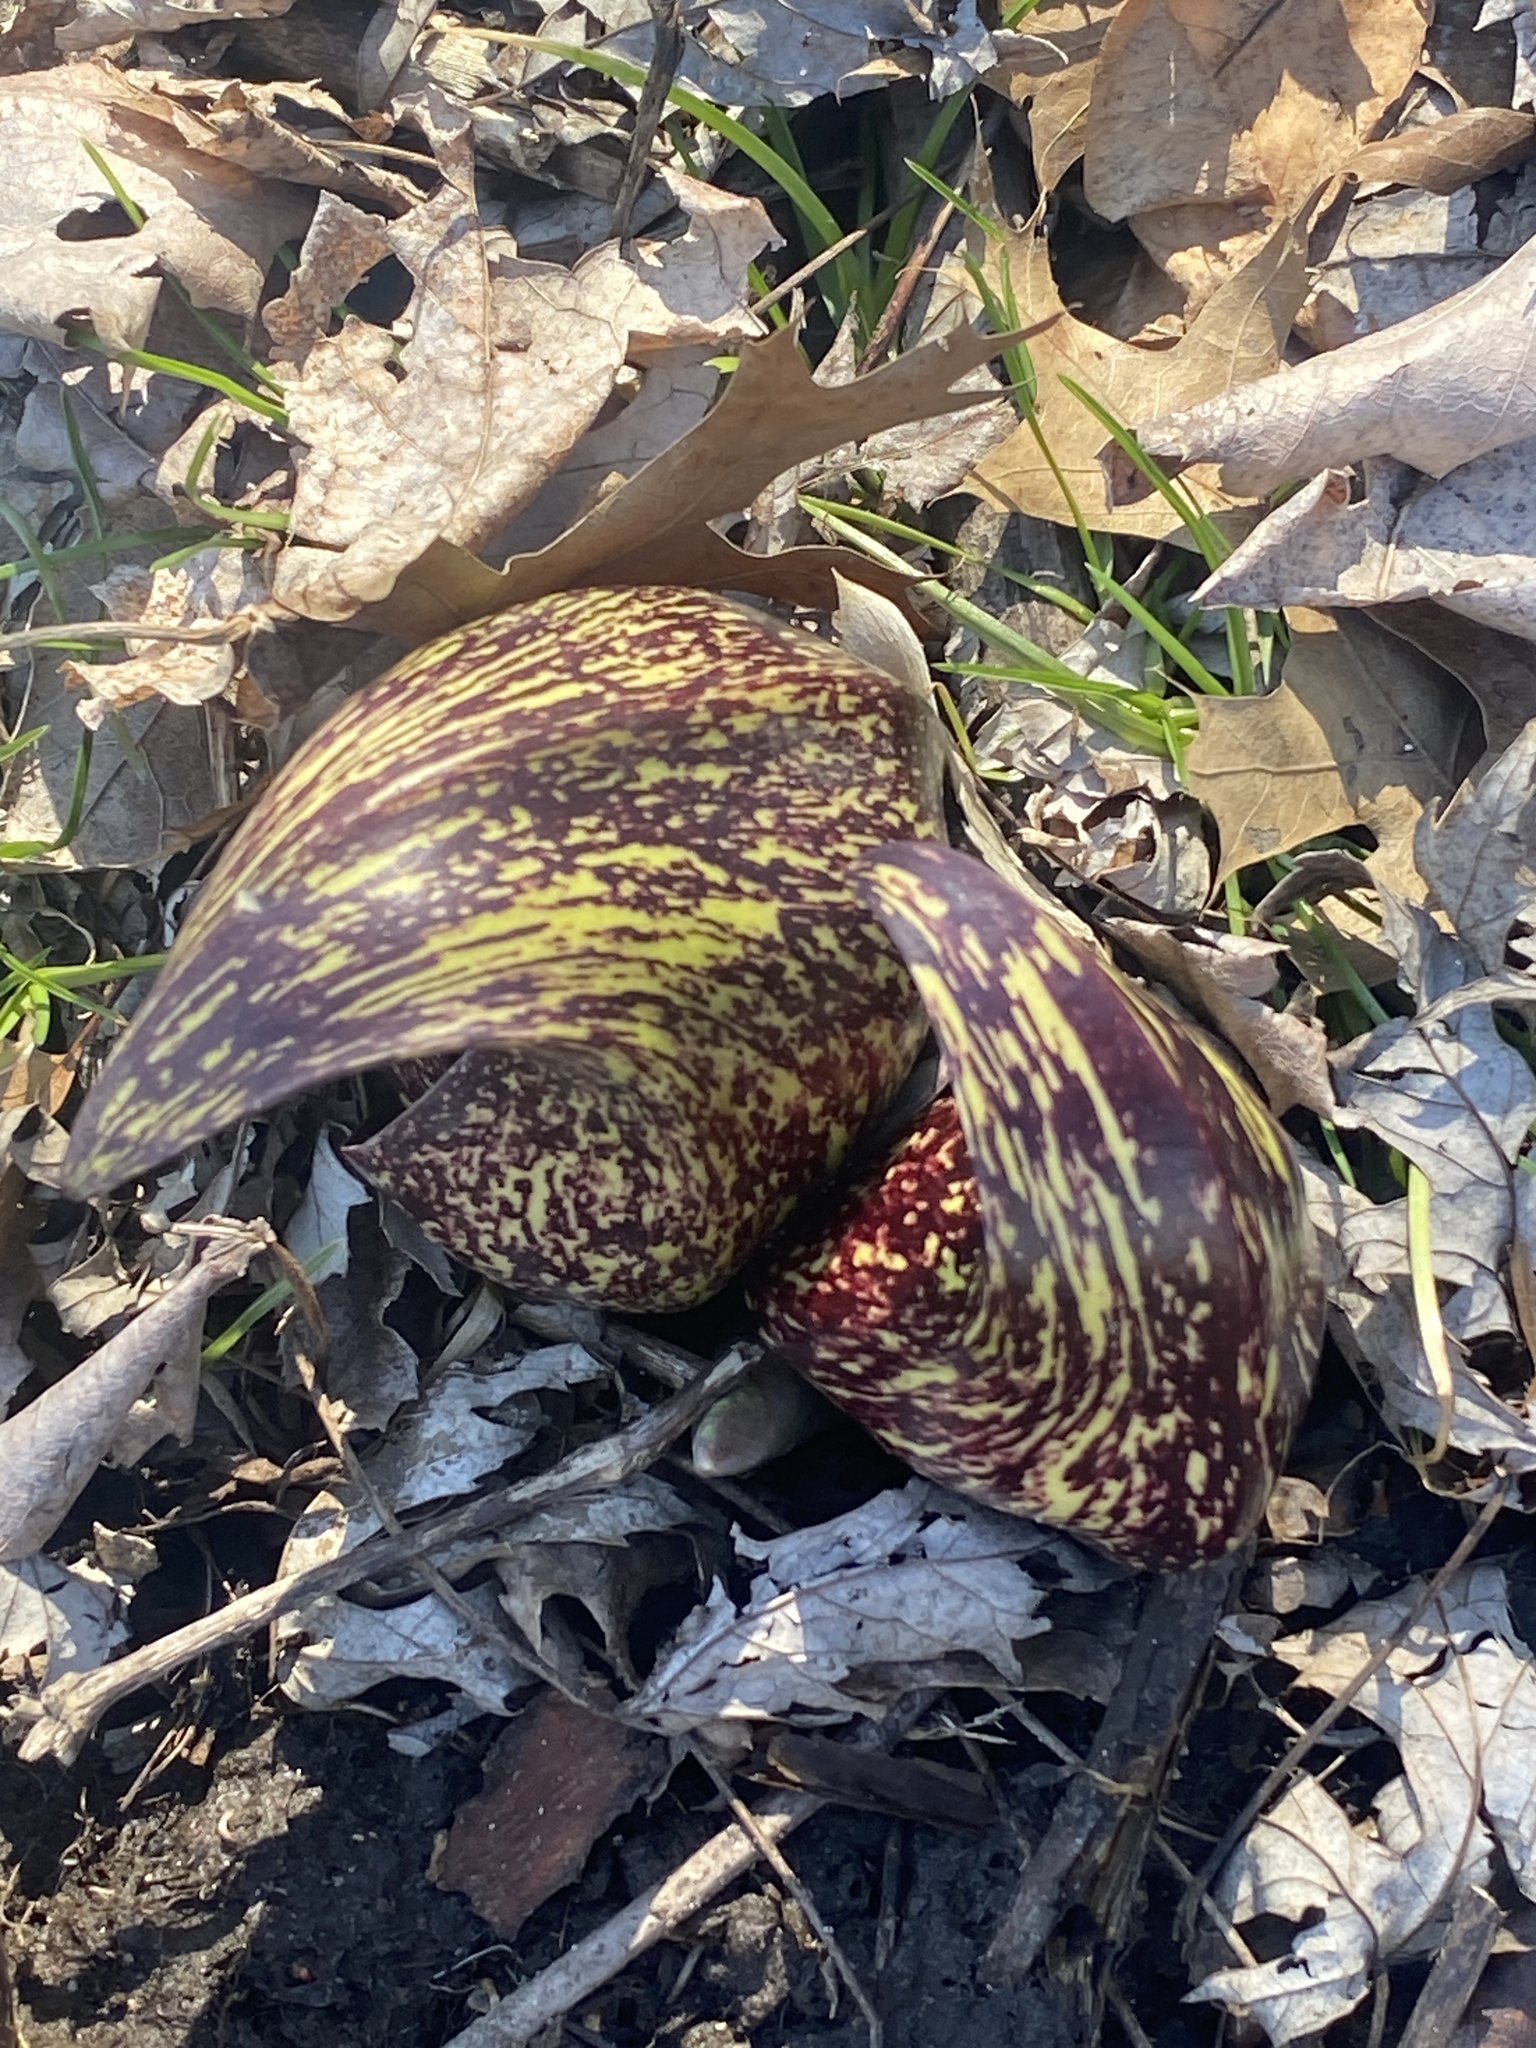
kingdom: Plantae
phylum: Tracheophyta
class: Liliopsida
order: Alismatales
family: Araceae
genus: Symplocarpus
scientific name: Symplocarpus foetidus
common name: Eastern skunk cabbage
